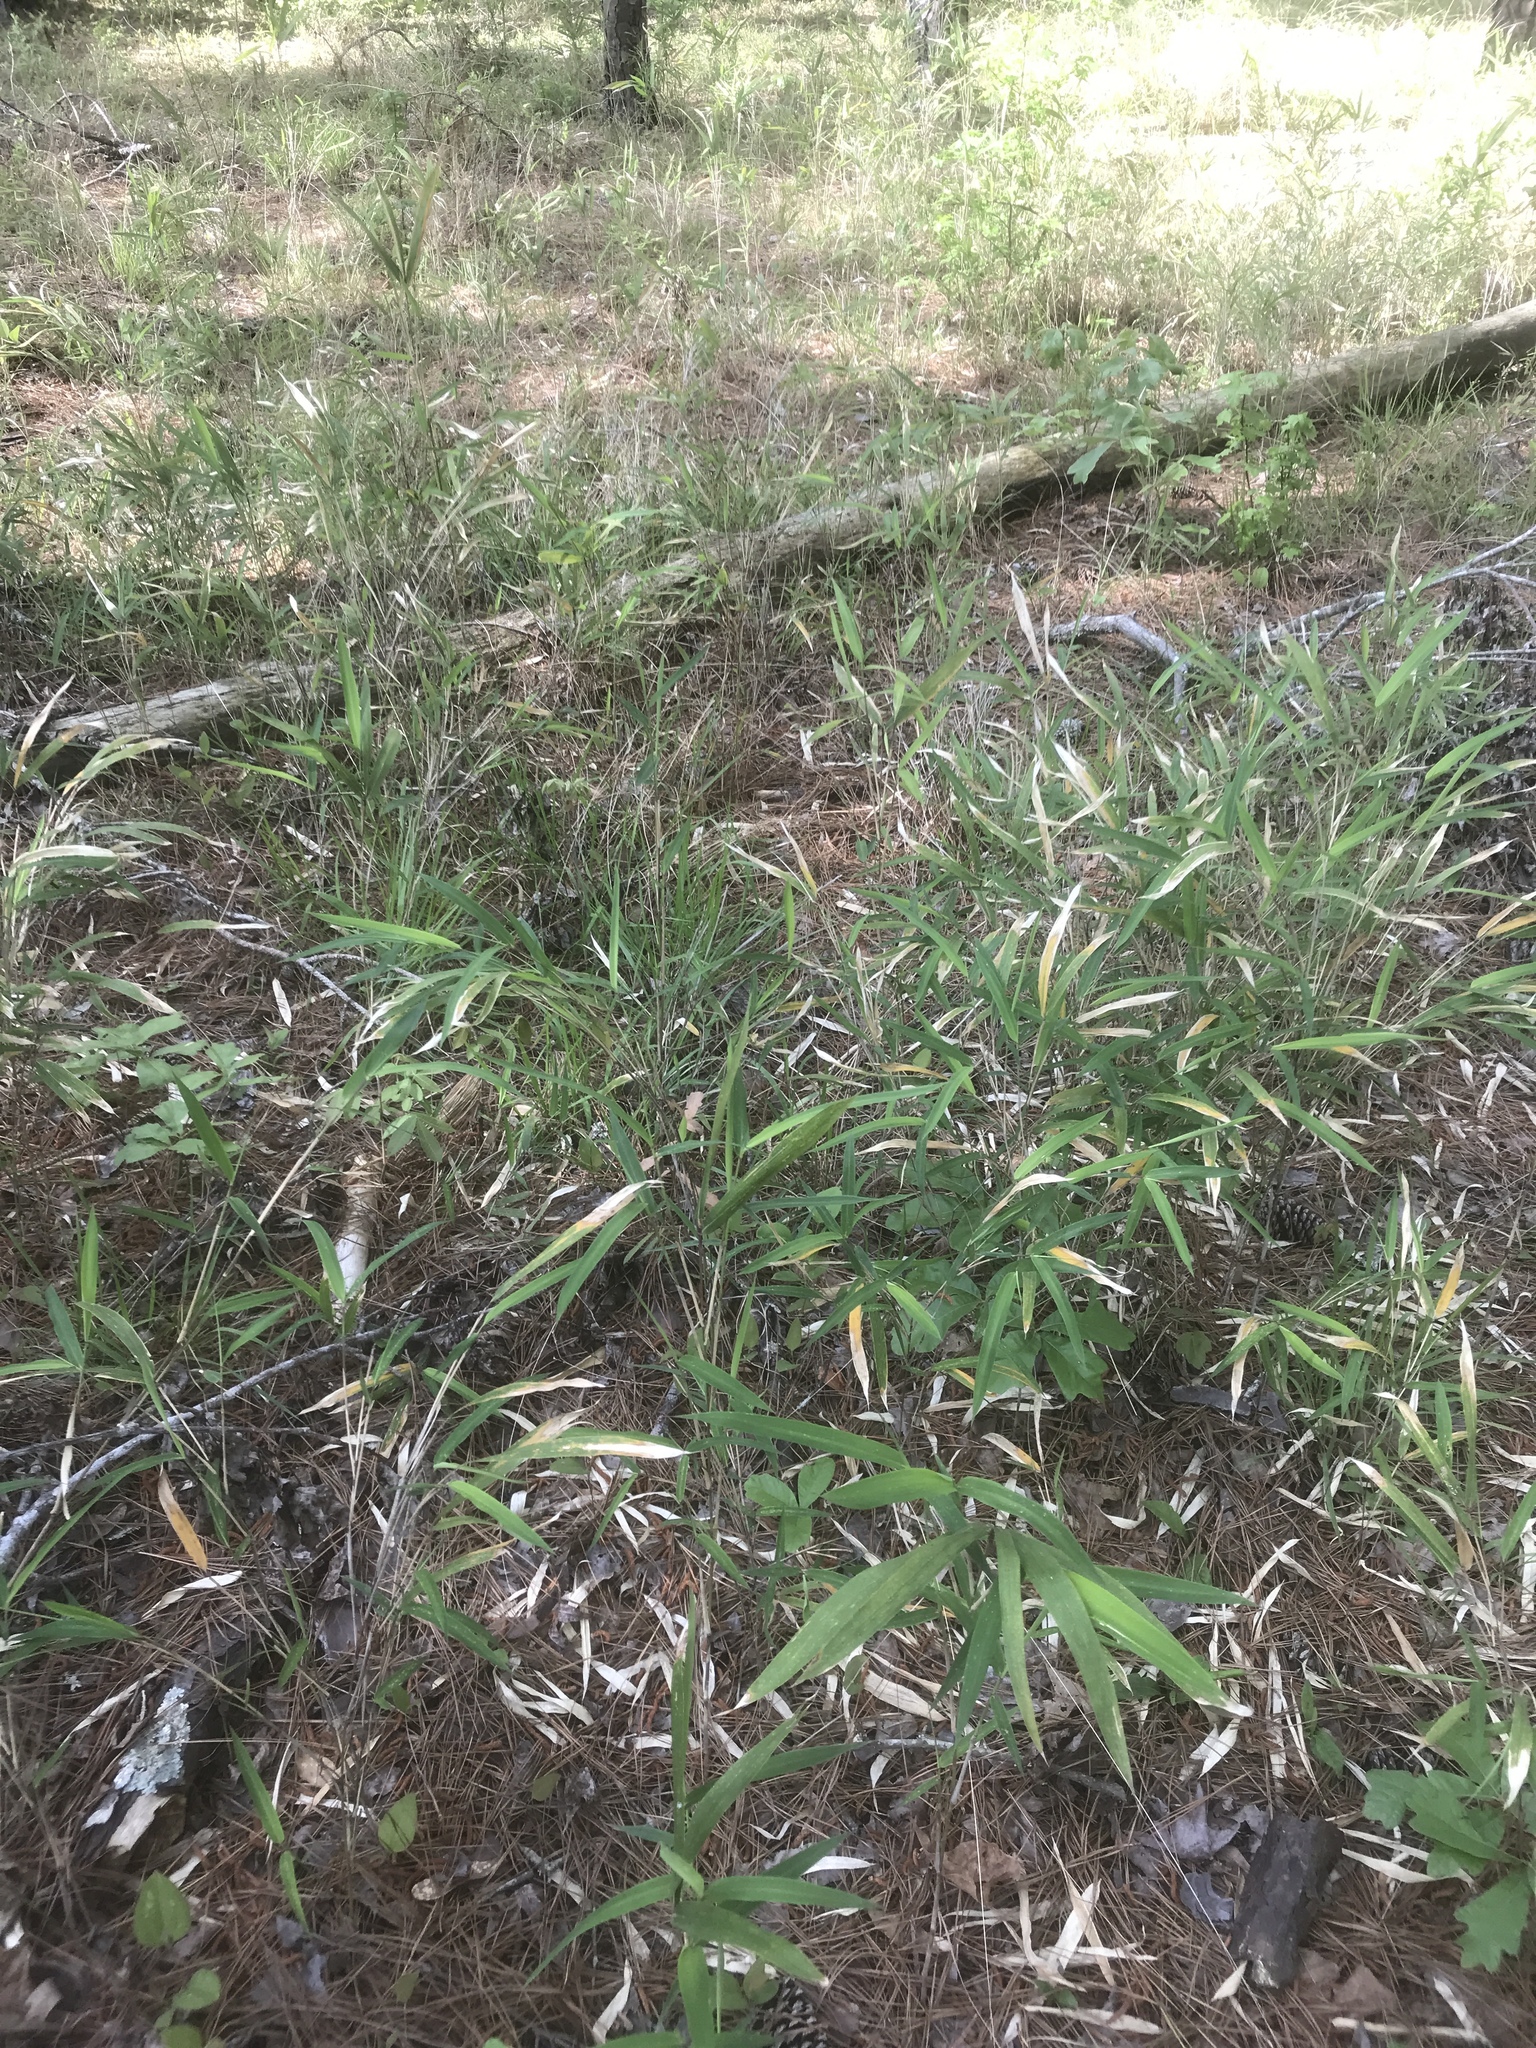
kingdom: Plantae
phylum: Tracheophyta
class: Liliopsida
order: Poales
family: Poaceae
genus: Arundinaria
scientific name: Arundinaria tecta
